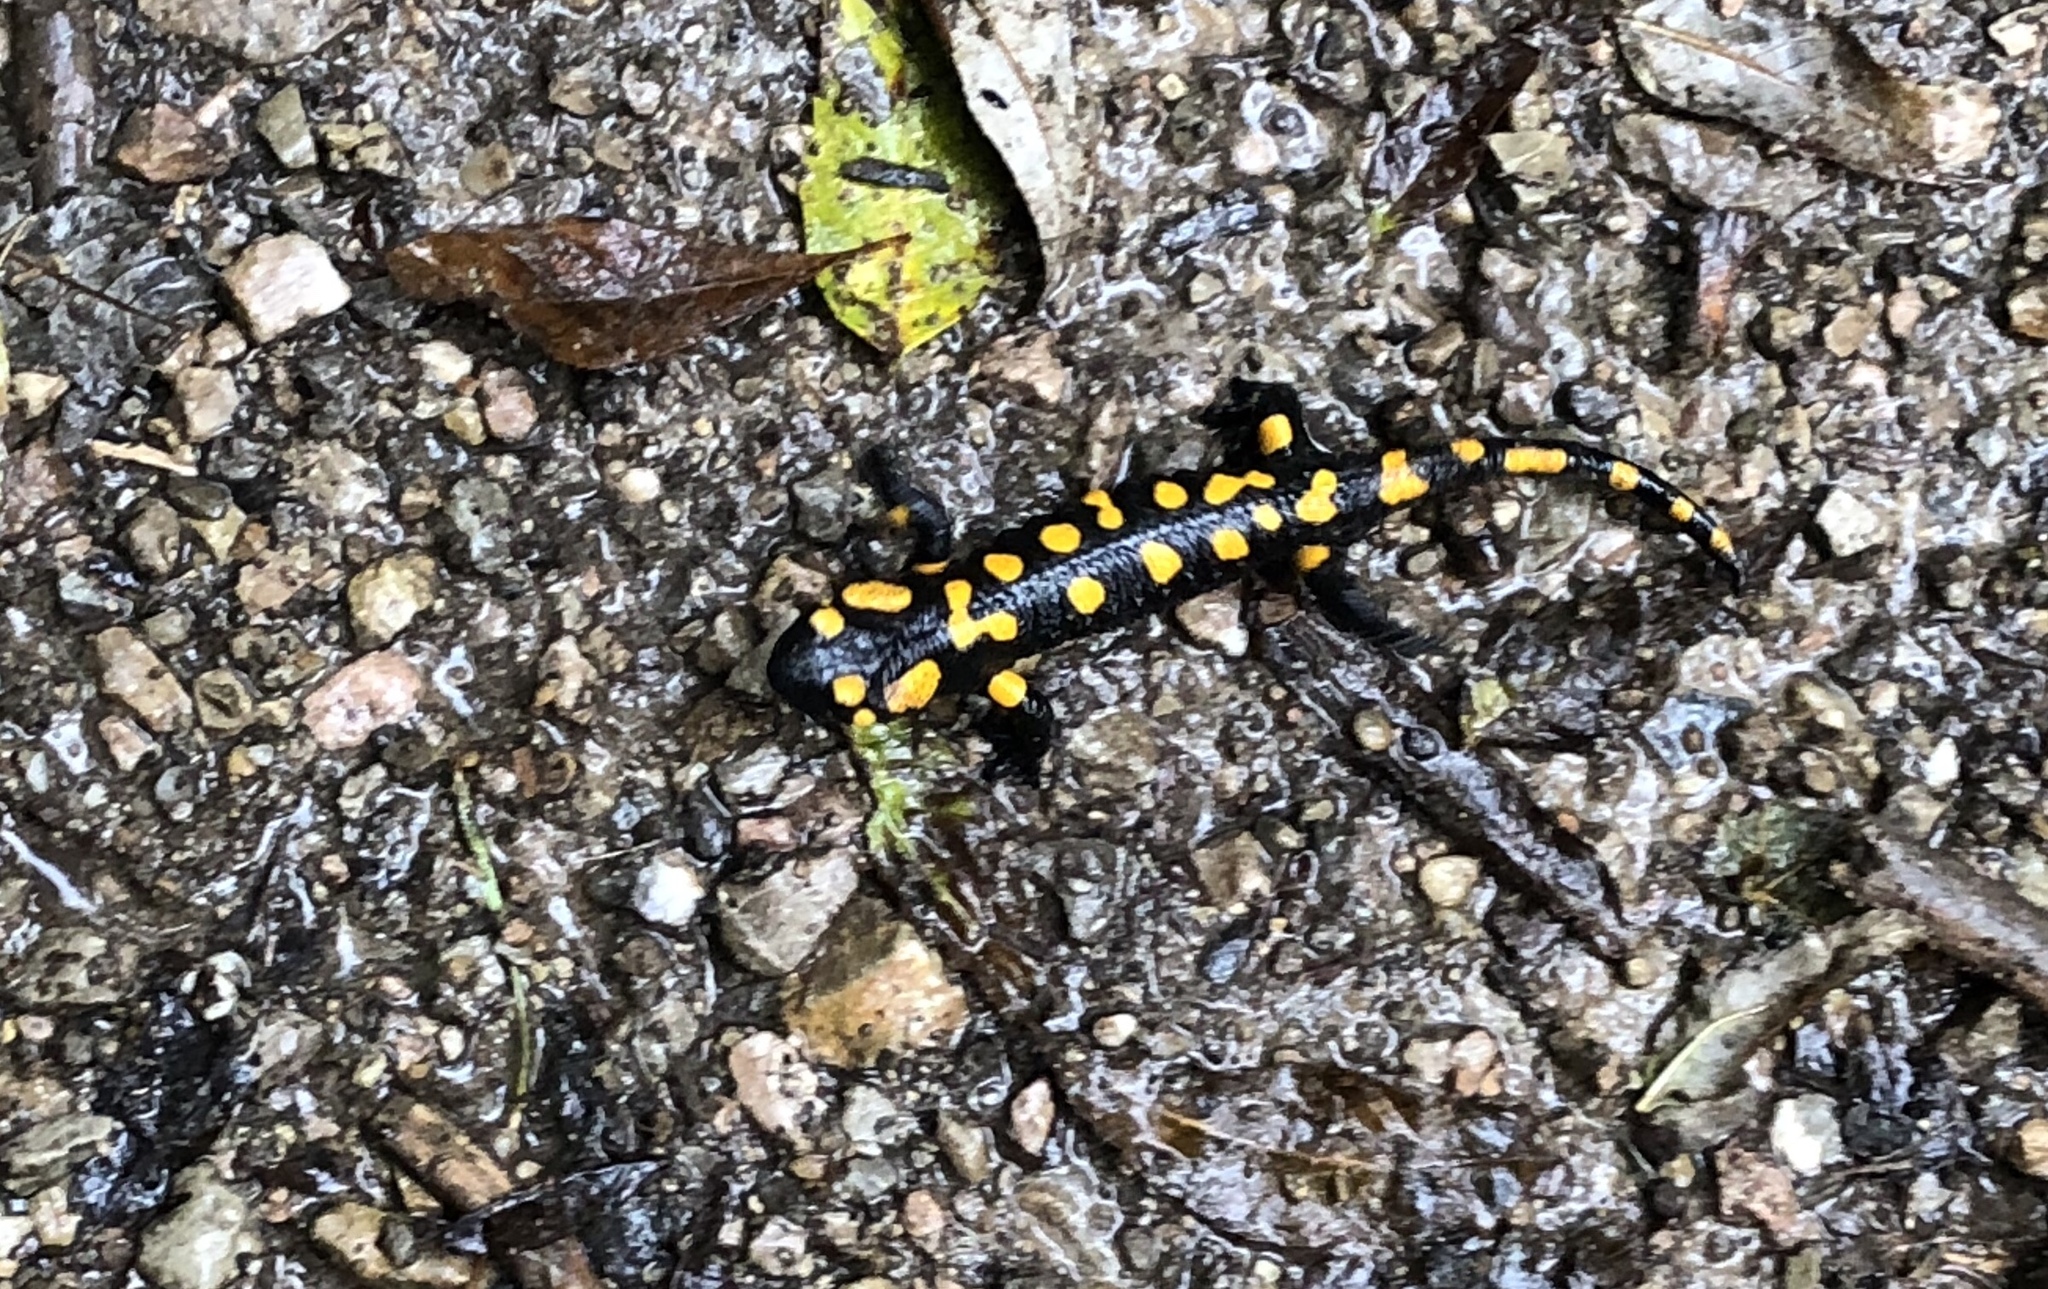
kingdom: Animalia
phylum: Chordata
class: Amphibia
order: Caudata
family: Salamandridae
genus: Salamandra
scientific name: Salamandra salamandra
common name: Fire salamander
